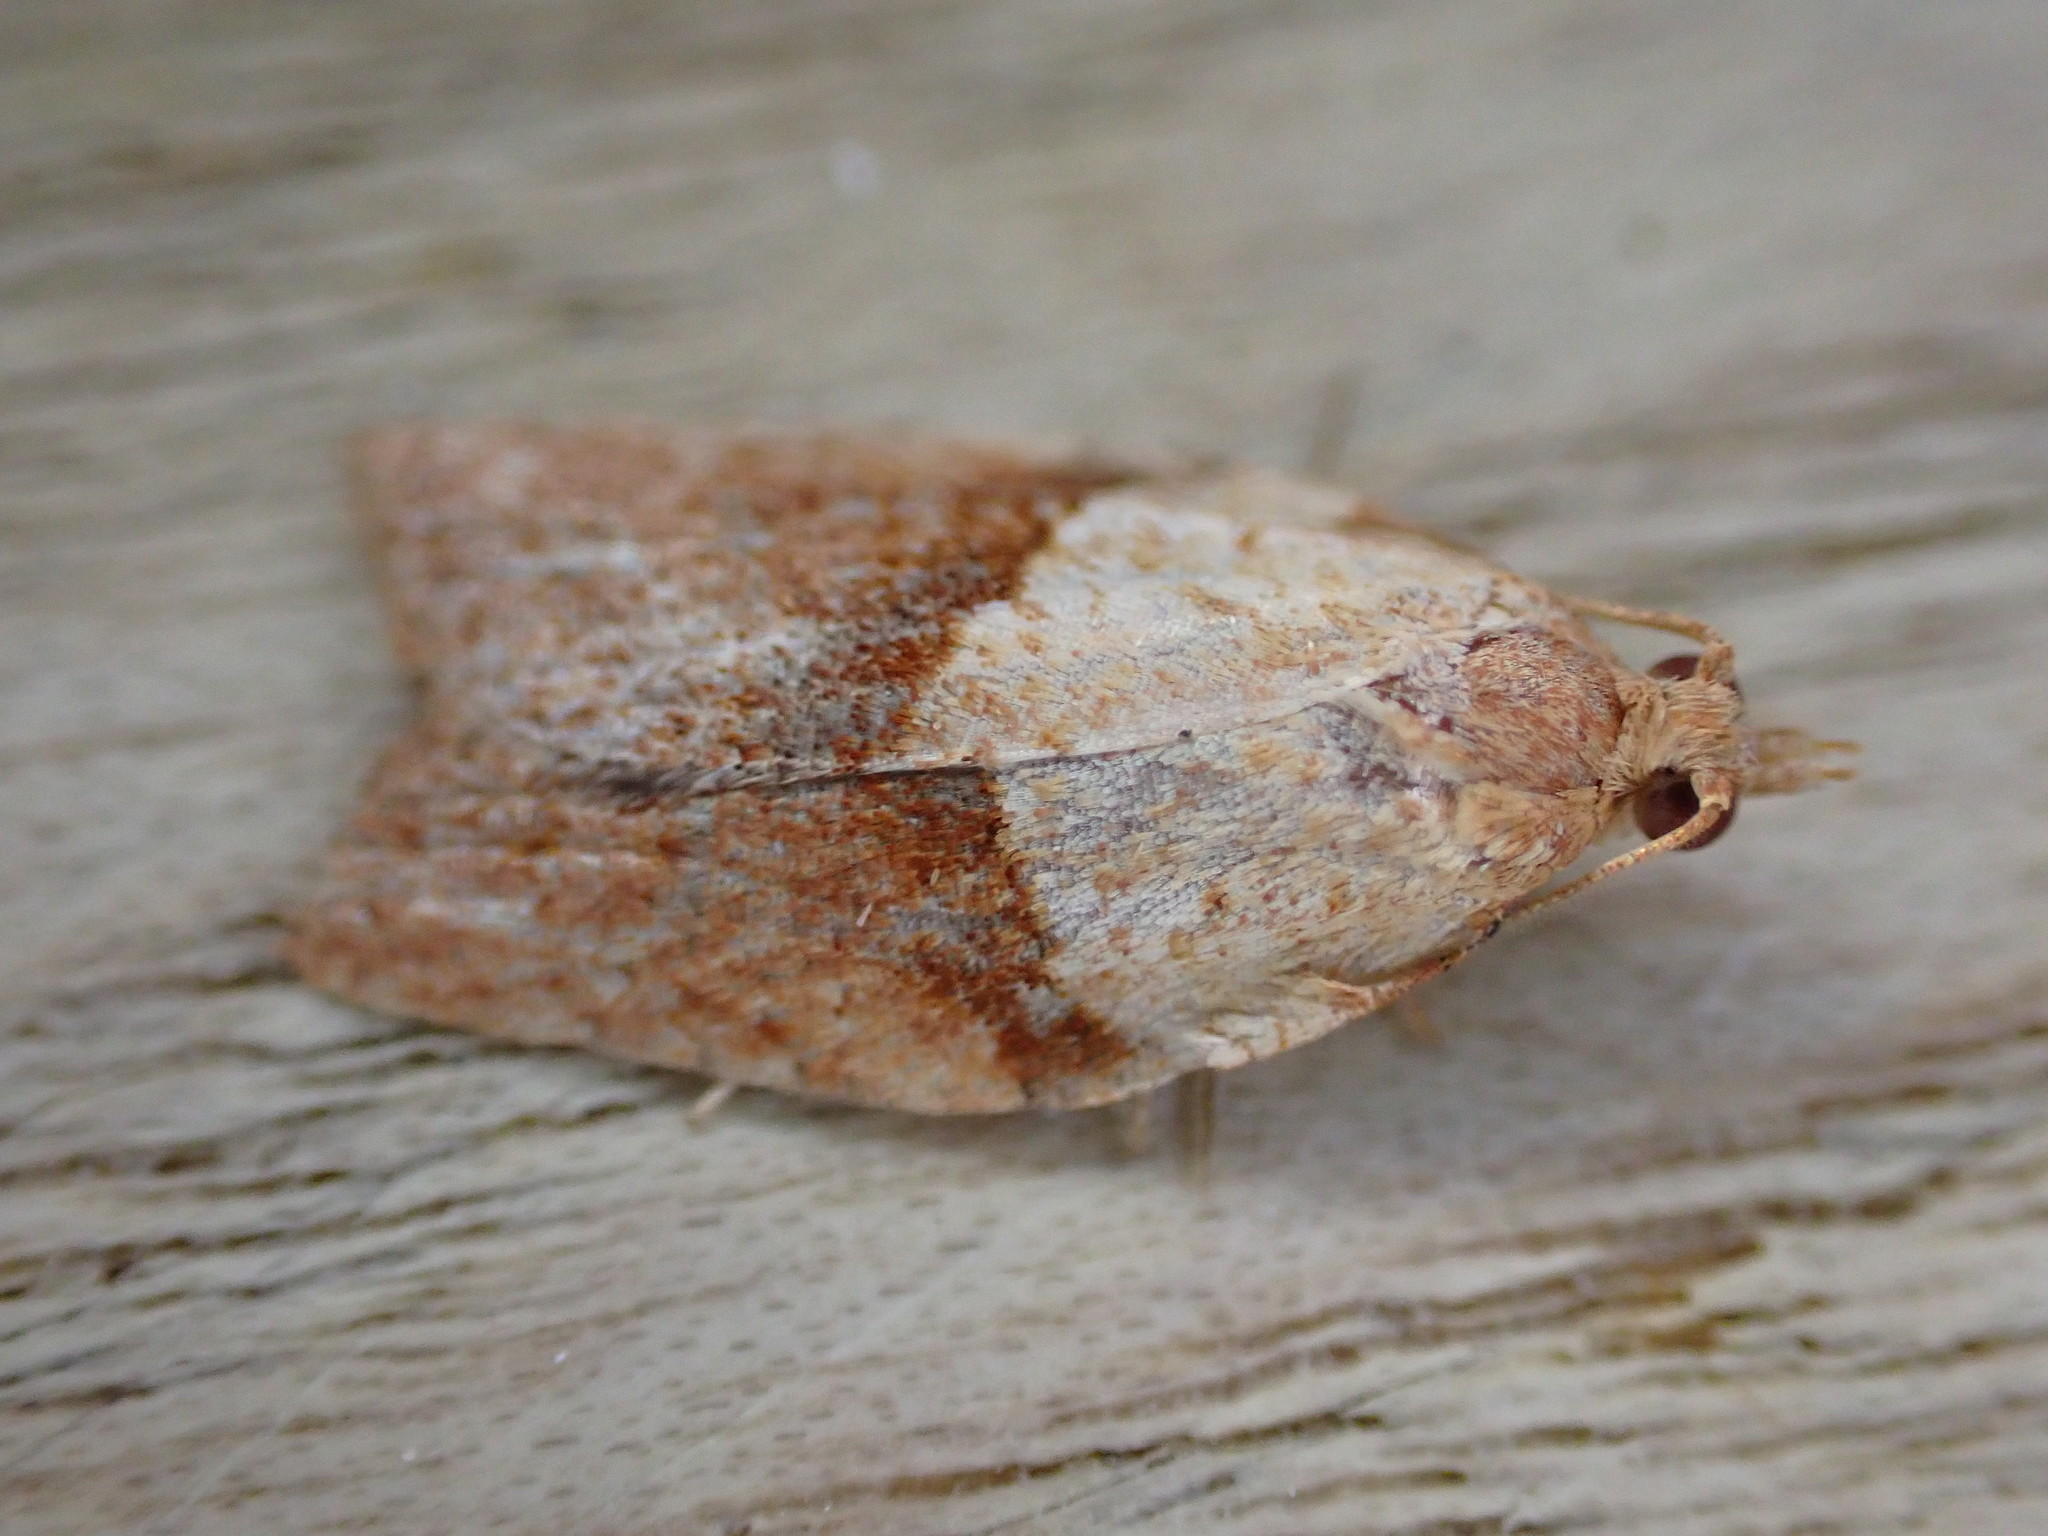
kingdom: Animalia
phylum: Arthropoda
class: Insecta
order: Lepidoptera
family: Tortricidae
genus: Epiphyas
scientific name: Epiphyas postvittana
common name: Light brown apple moth
